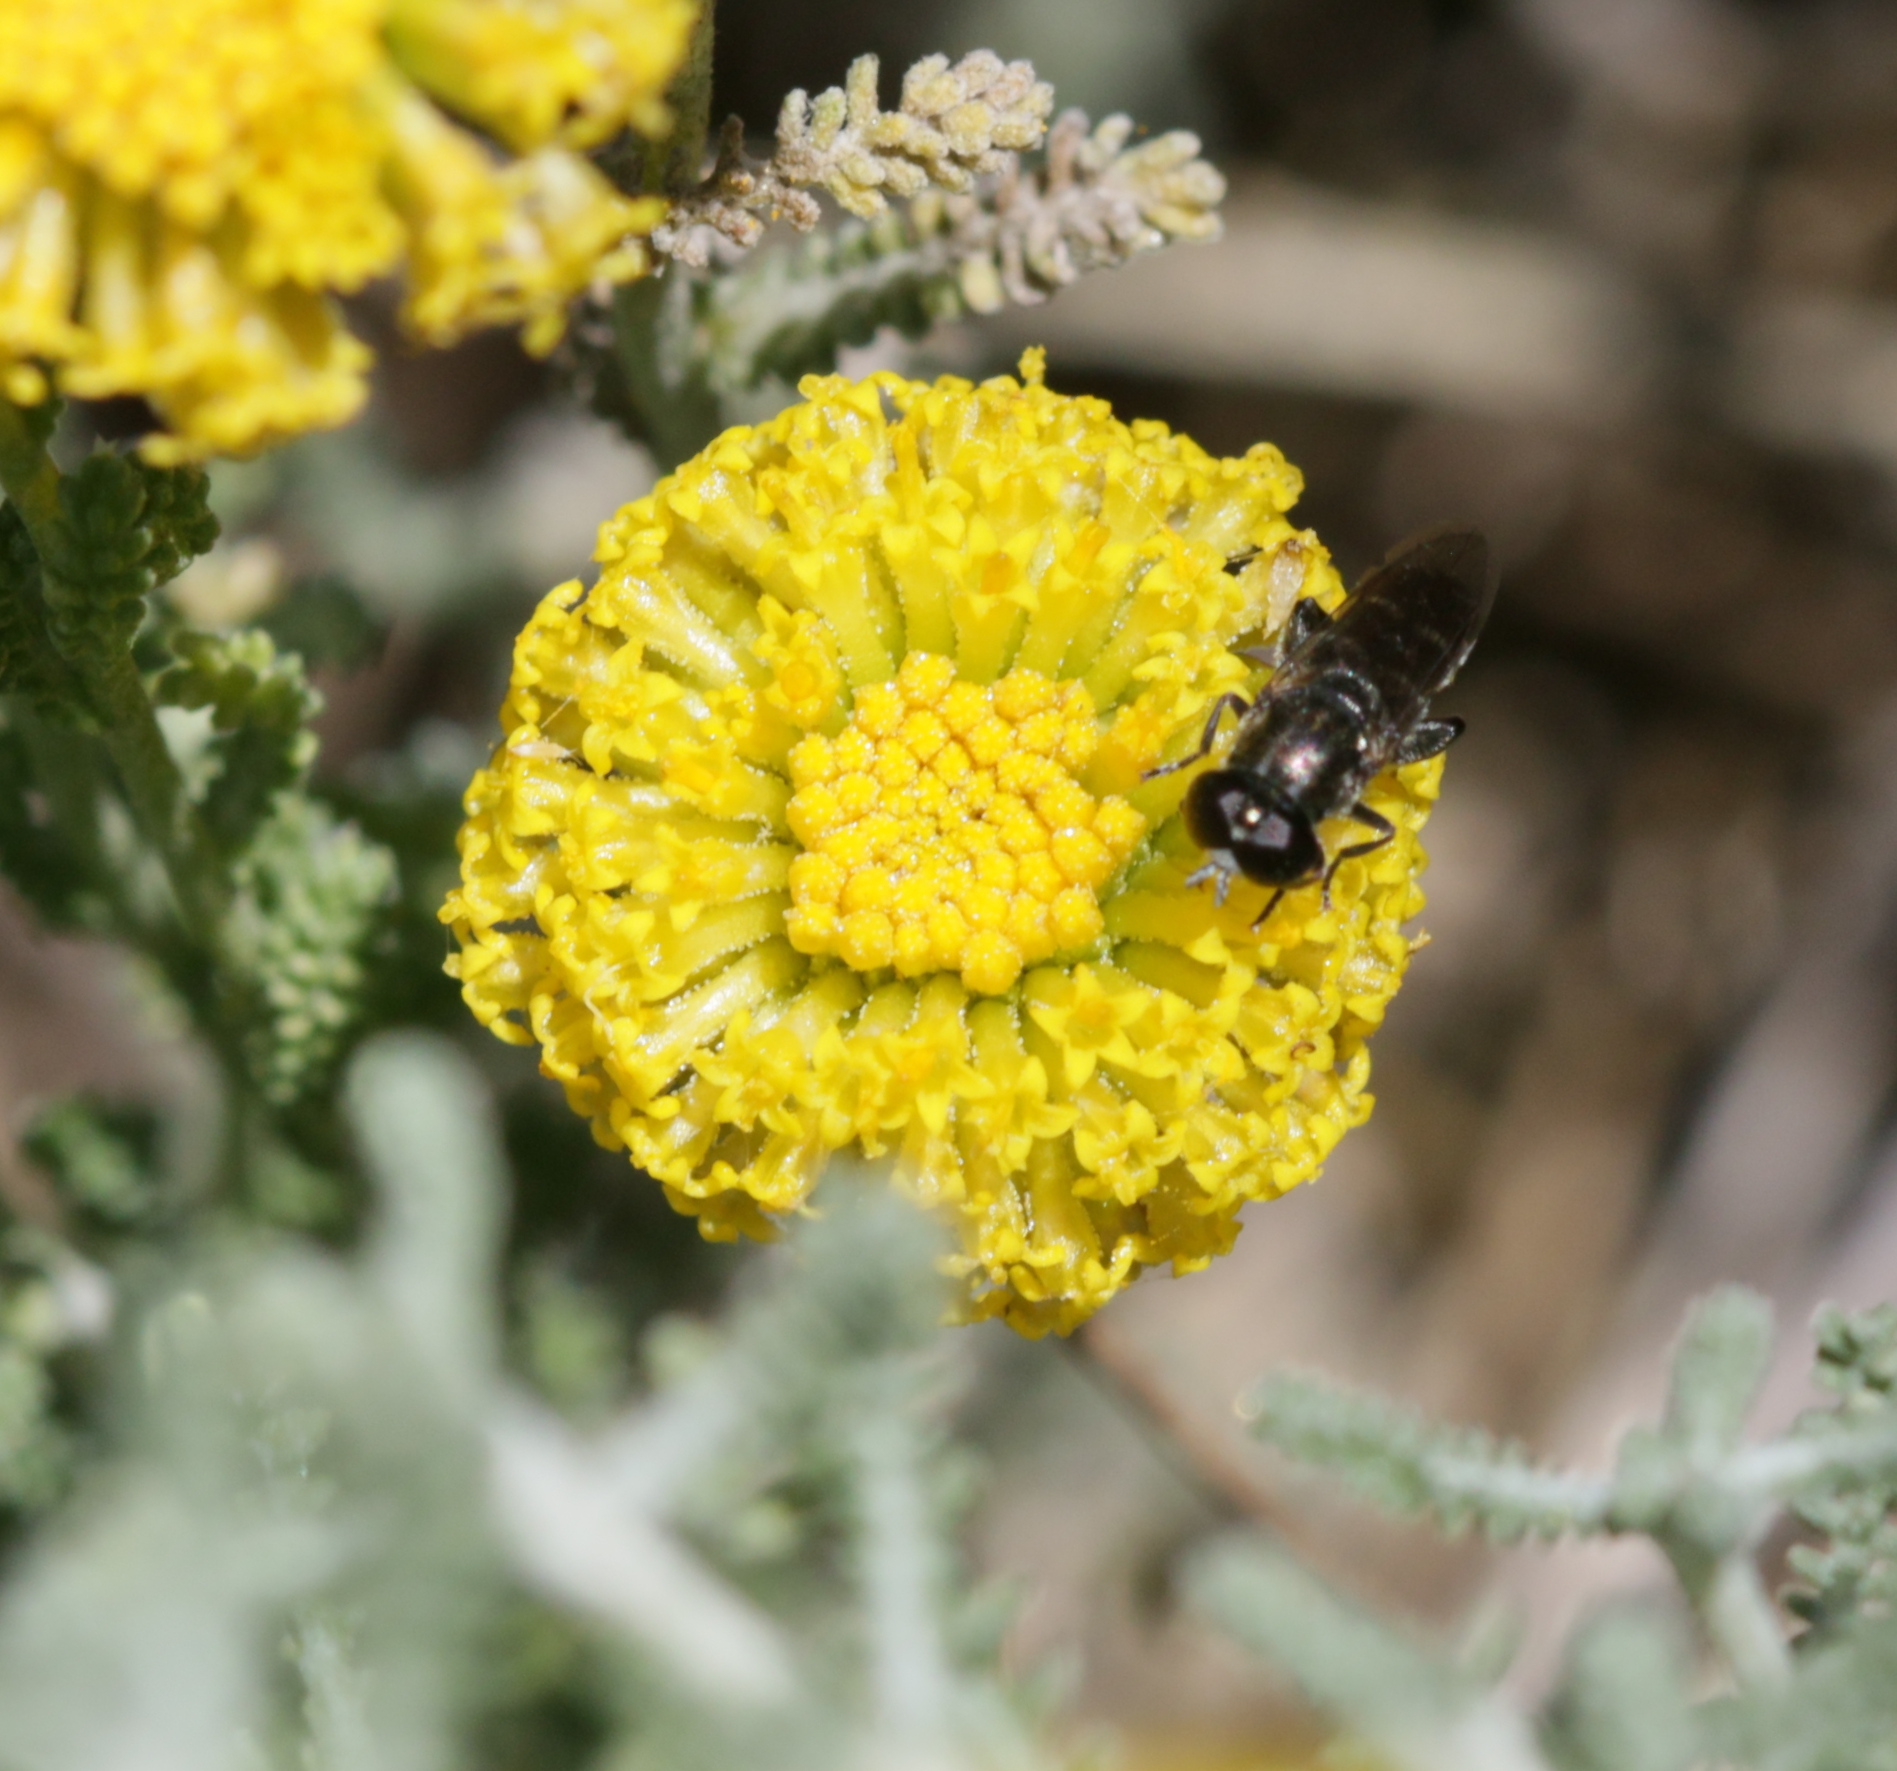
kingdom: Plantae
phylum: Tracheophyta
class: Magnoliopsida
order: Asterales
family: Asteraceae
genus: Santolina
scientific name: Santolina chamaecyparissus
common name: Lavender-cotton
